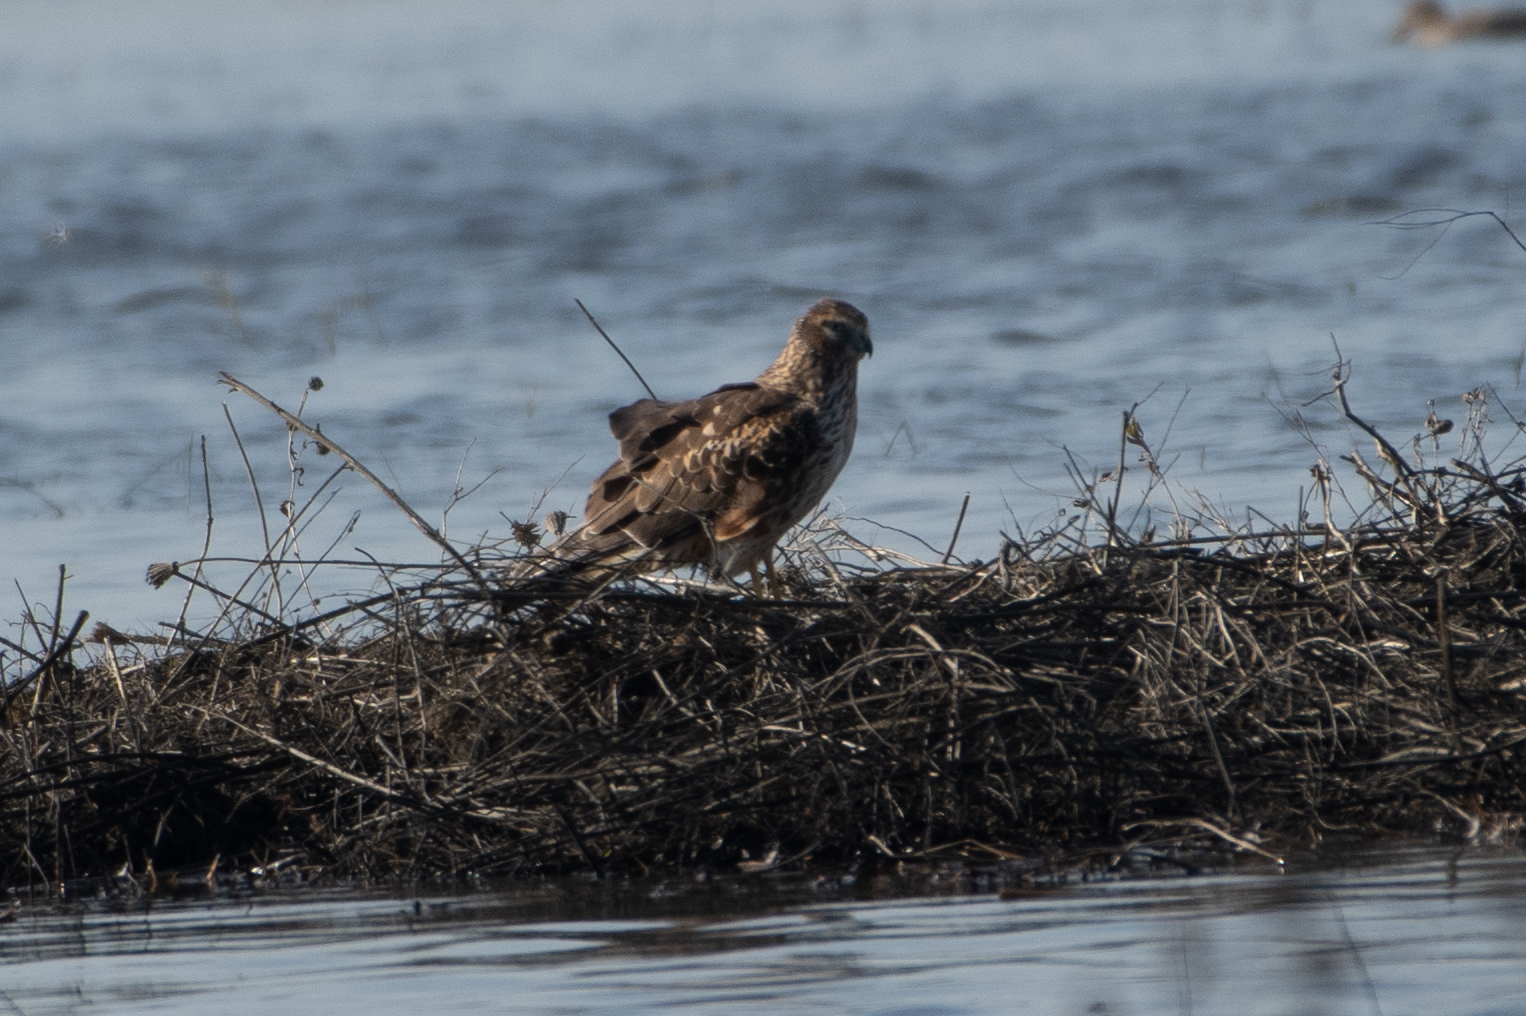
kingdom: Animalia
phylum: Chordata
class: Aves
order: Accipitriformes
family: Accipitridae
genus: Circus
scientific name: Circus cyaneus
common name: Hen harrier
